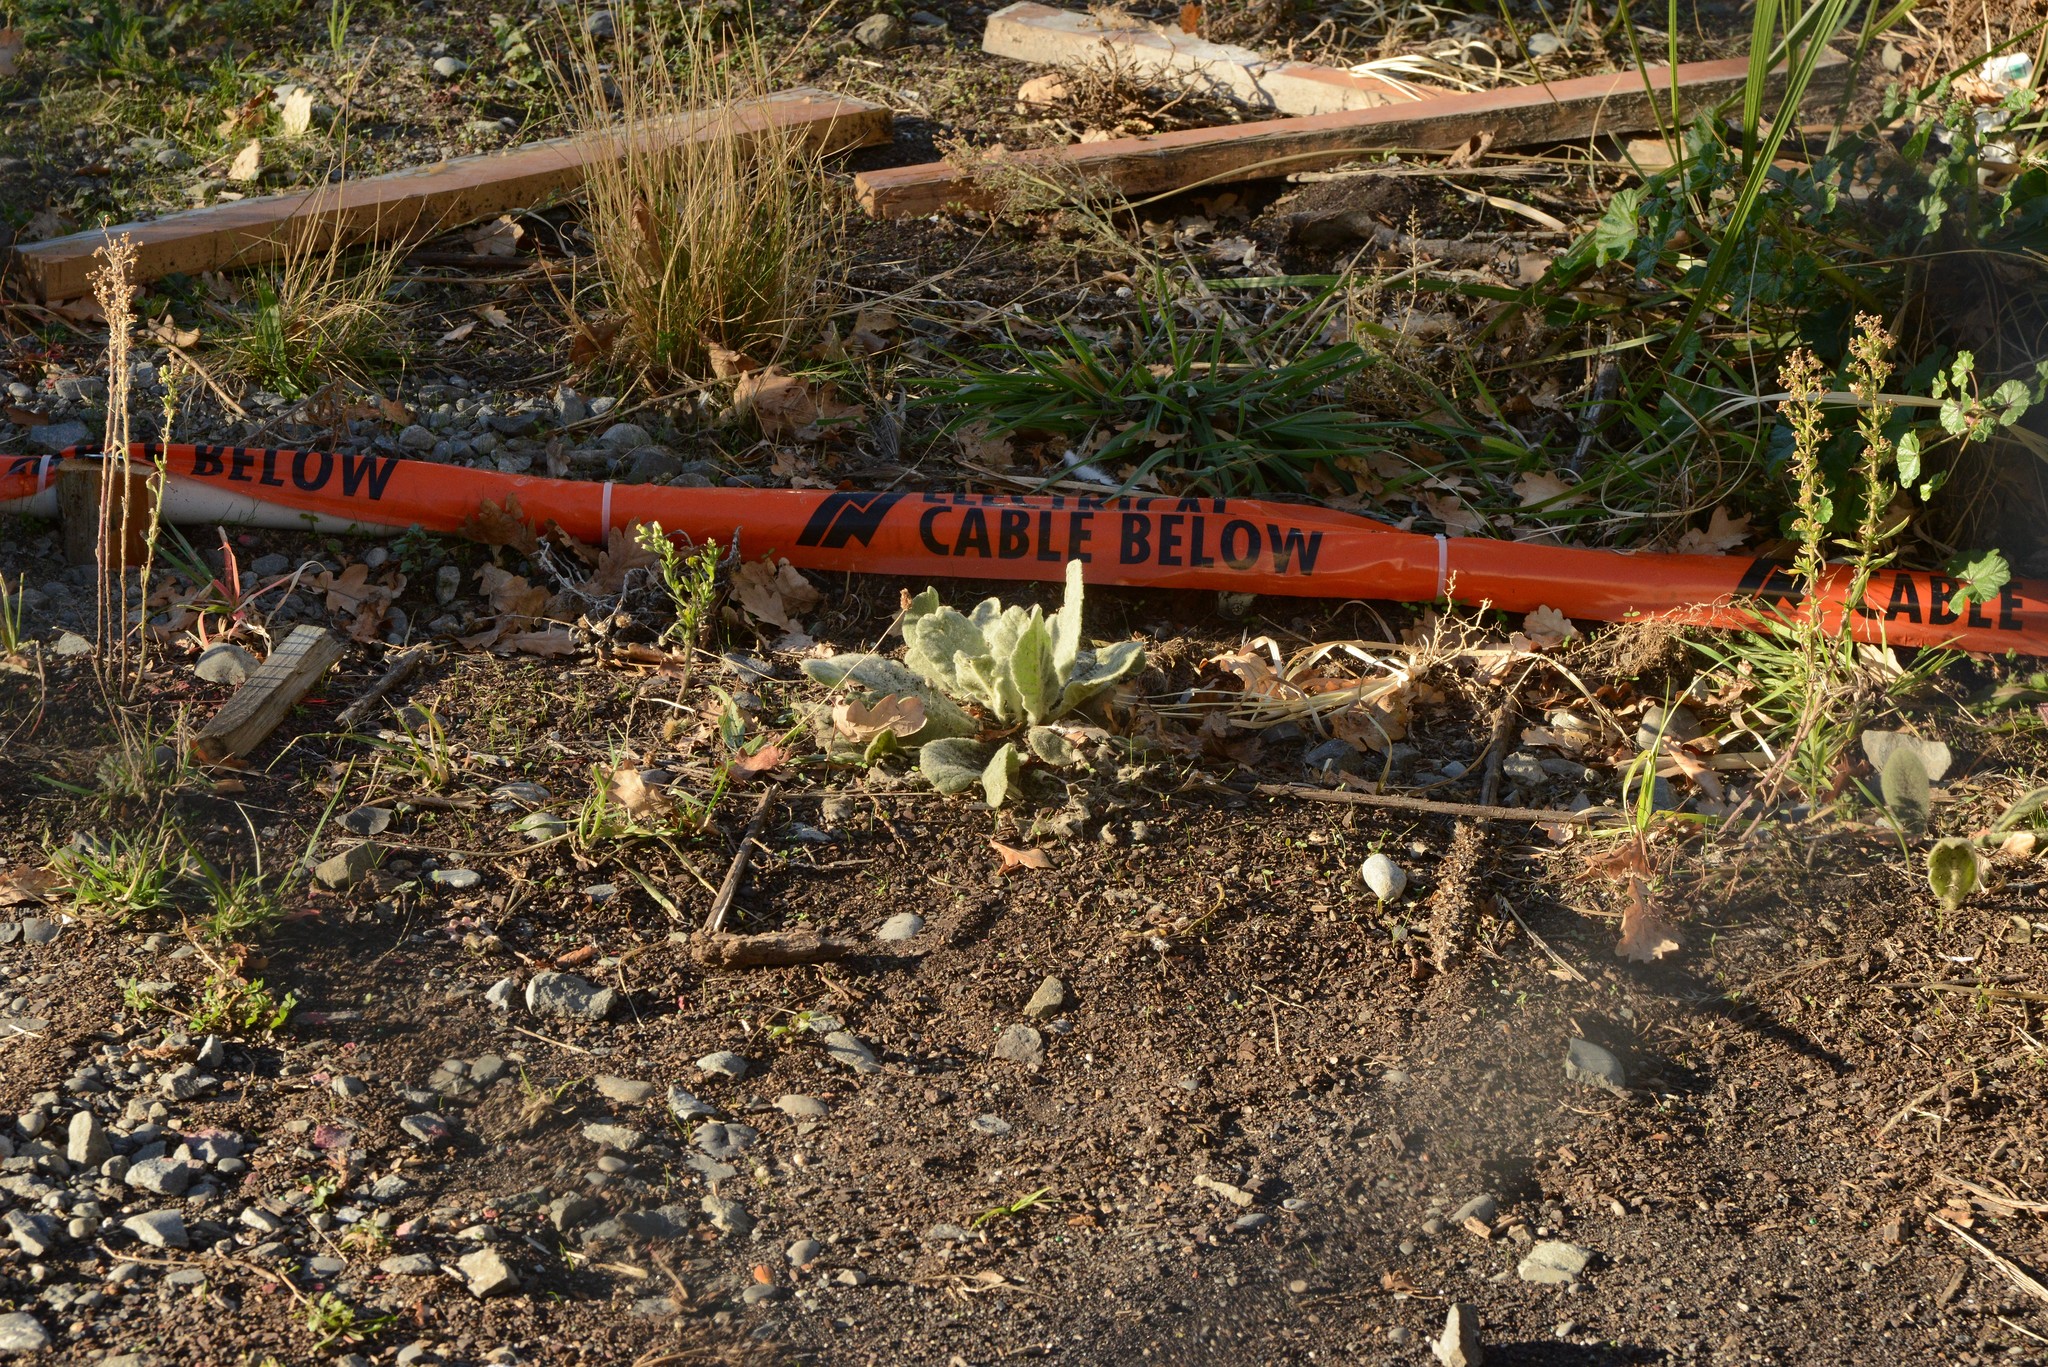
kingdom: Plantae
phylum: Tracheophyta
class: Magnoliopsida
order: Lamiales
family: Scrophulariaceae
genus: Verbascum
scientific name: Verbascum thapsus
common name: Common mullein
